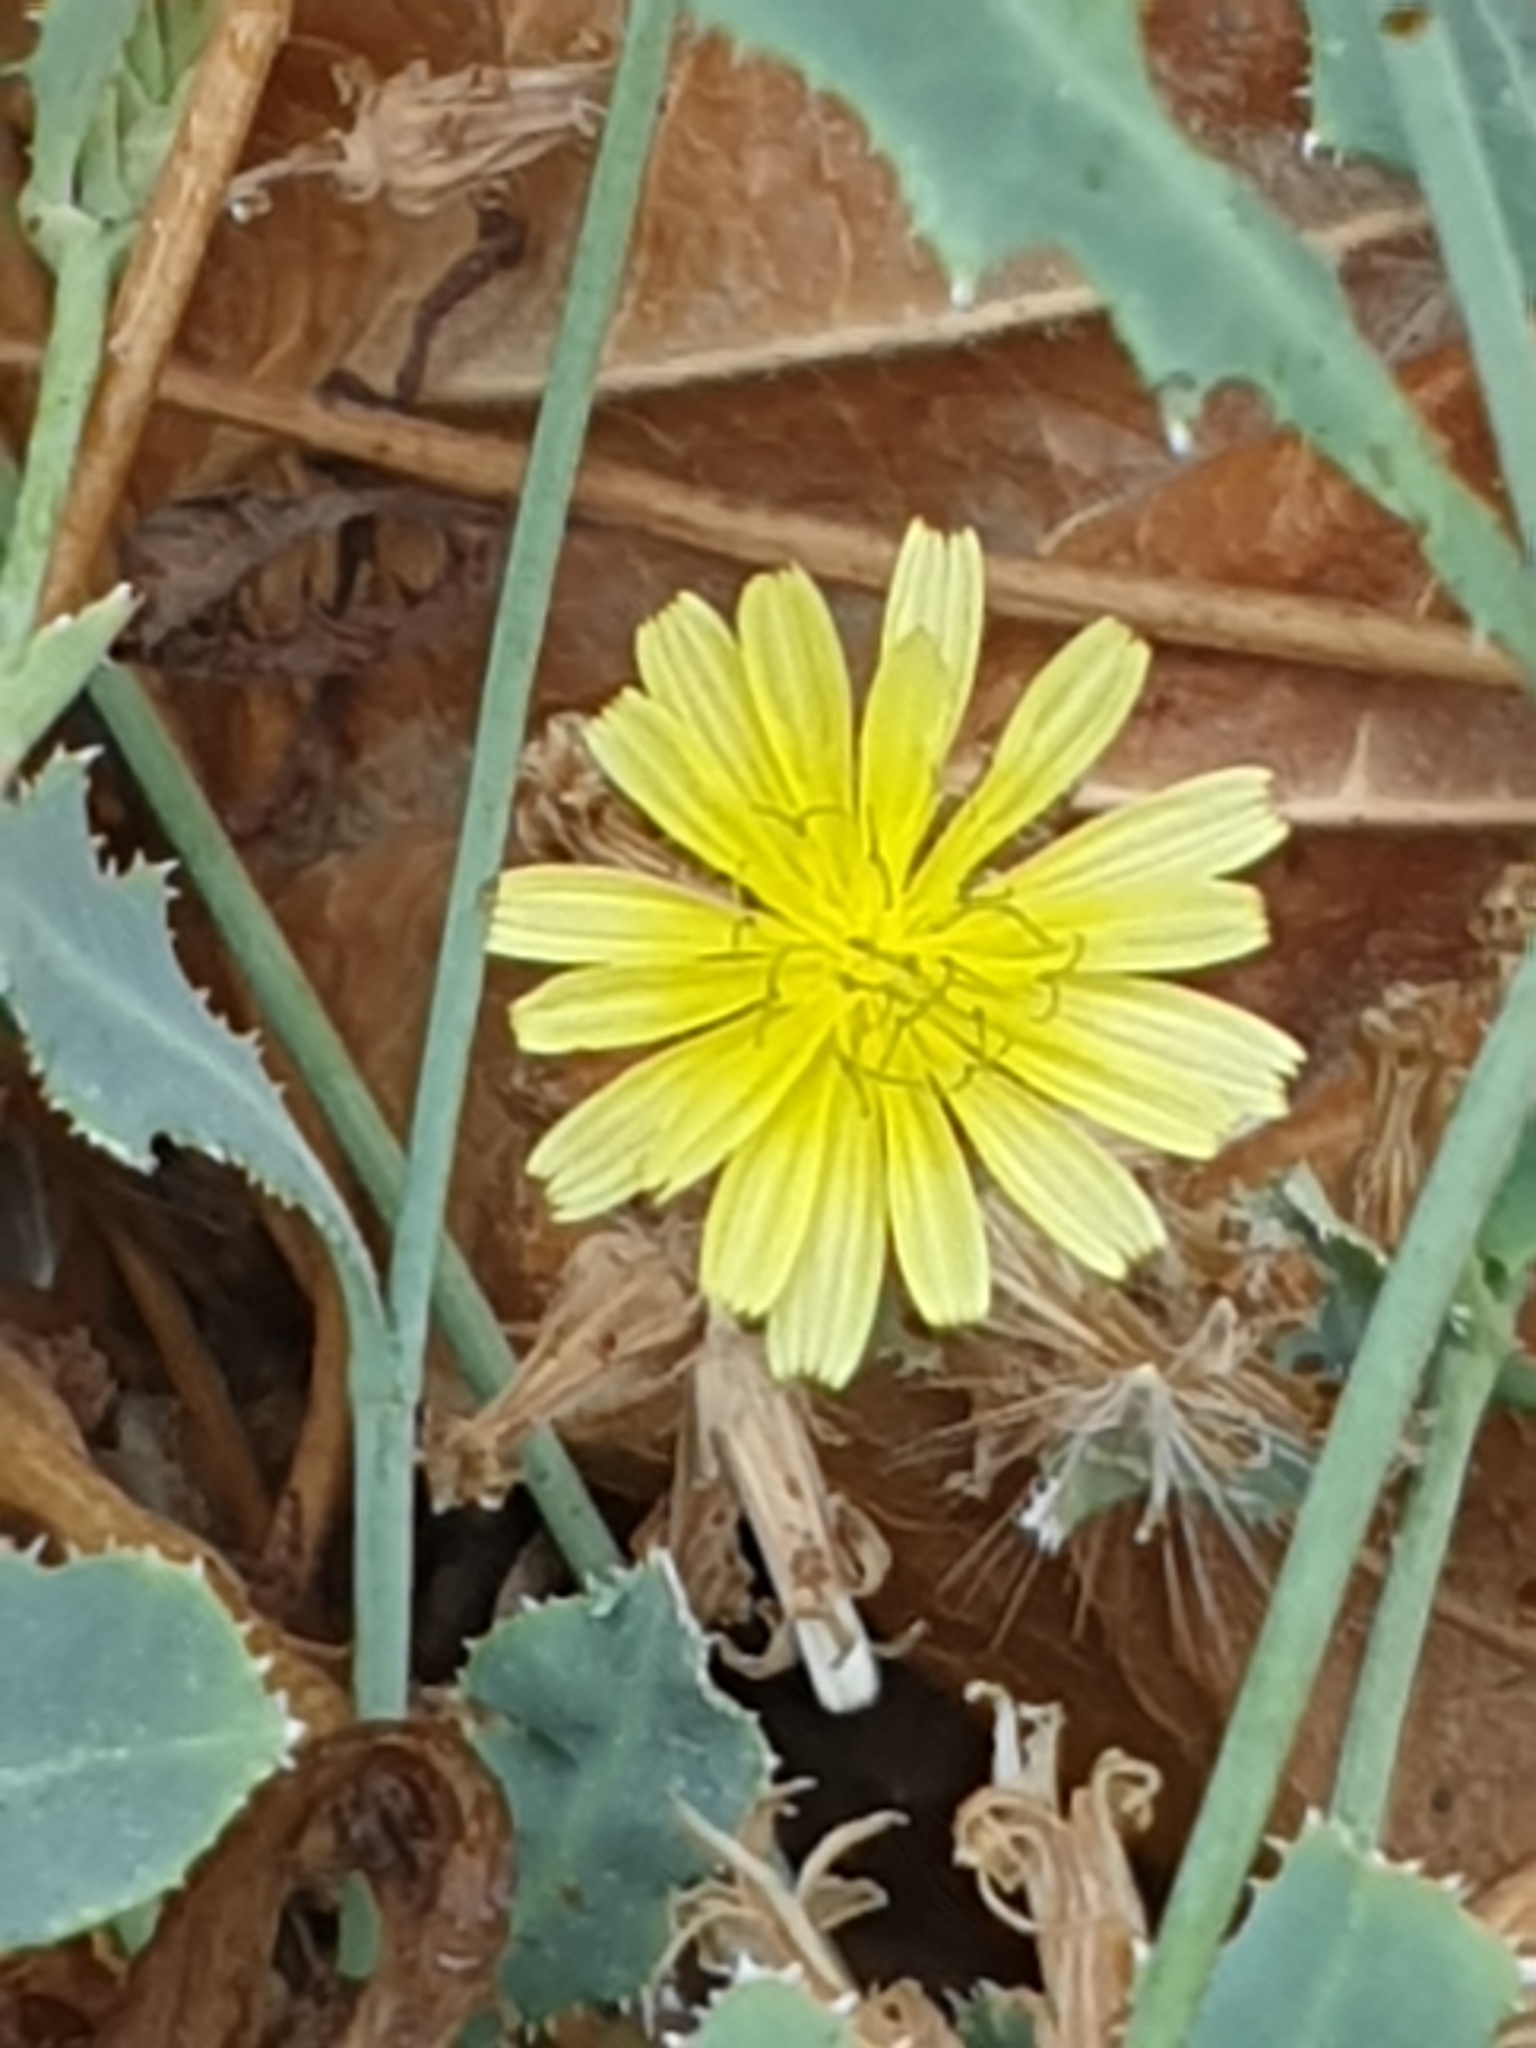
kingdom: Plantae
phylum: Tracheophyta
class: Magnoliopsida
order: Asterales
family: Asteraceae
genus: Launaea
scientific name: Launaea nudicaulis
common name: Naked launaea
